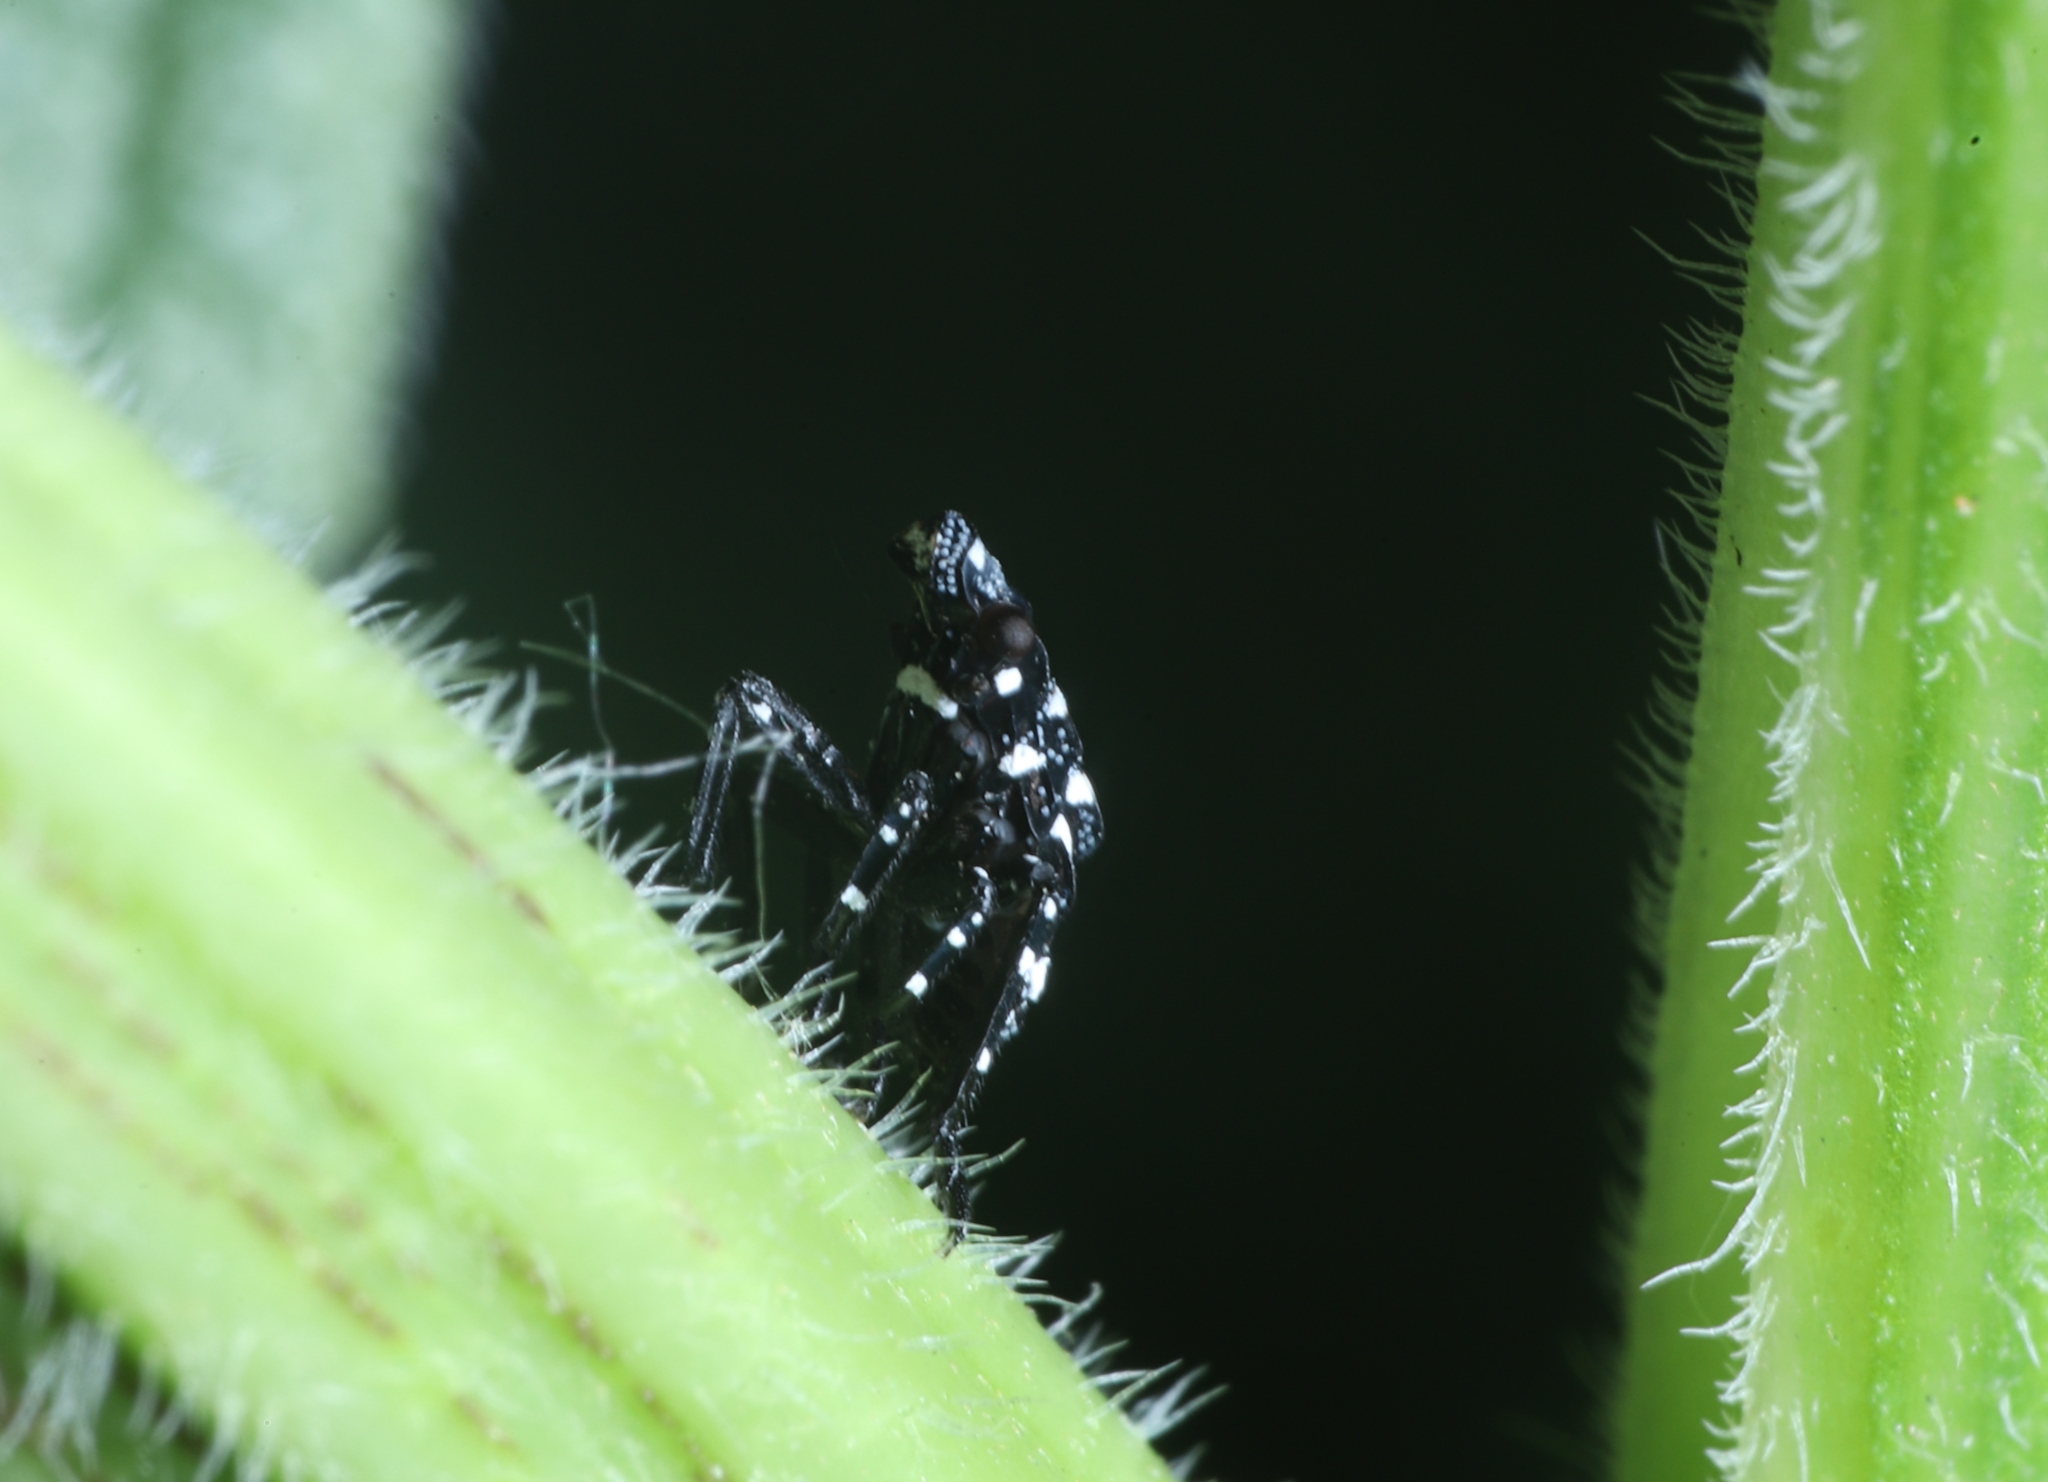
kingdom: Animalia
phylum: Arthropoda
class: Insecta
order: Hemiptera
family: Fulgoridae
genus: Lycorma
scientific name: Lycorma delicatula
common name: Spotted lanternfly
